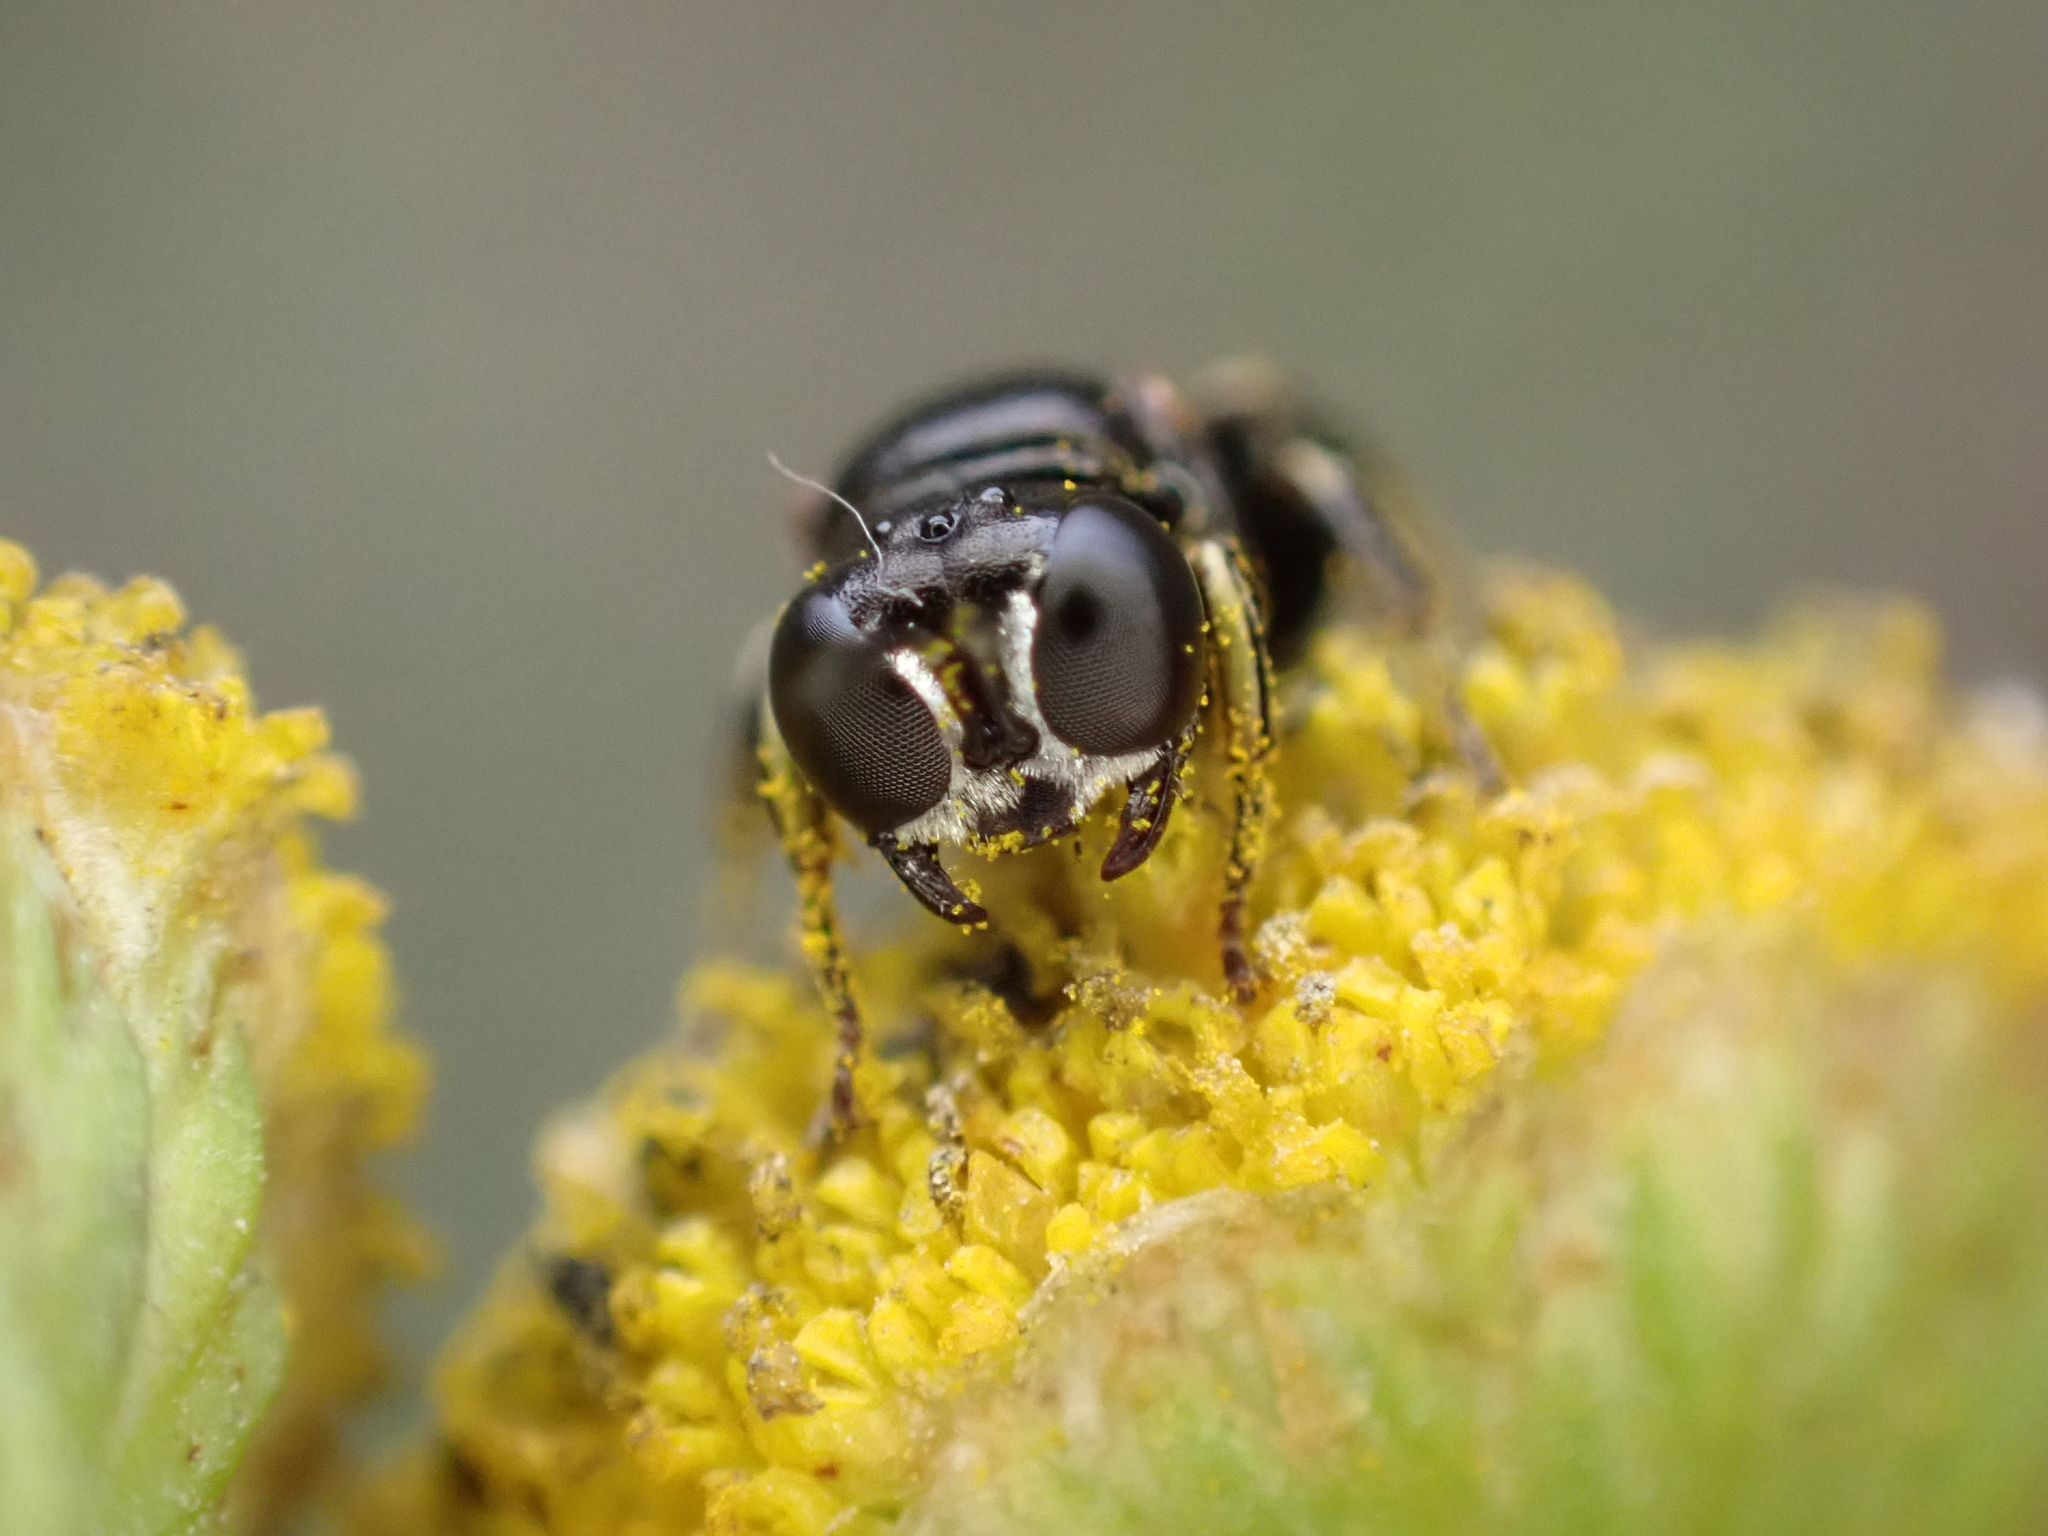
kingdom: Animalia
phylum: Arthropoda
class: Insecta
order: Hymenoptera
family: Crabronidae
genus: Lindenius
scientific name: Lindenius albilabris
